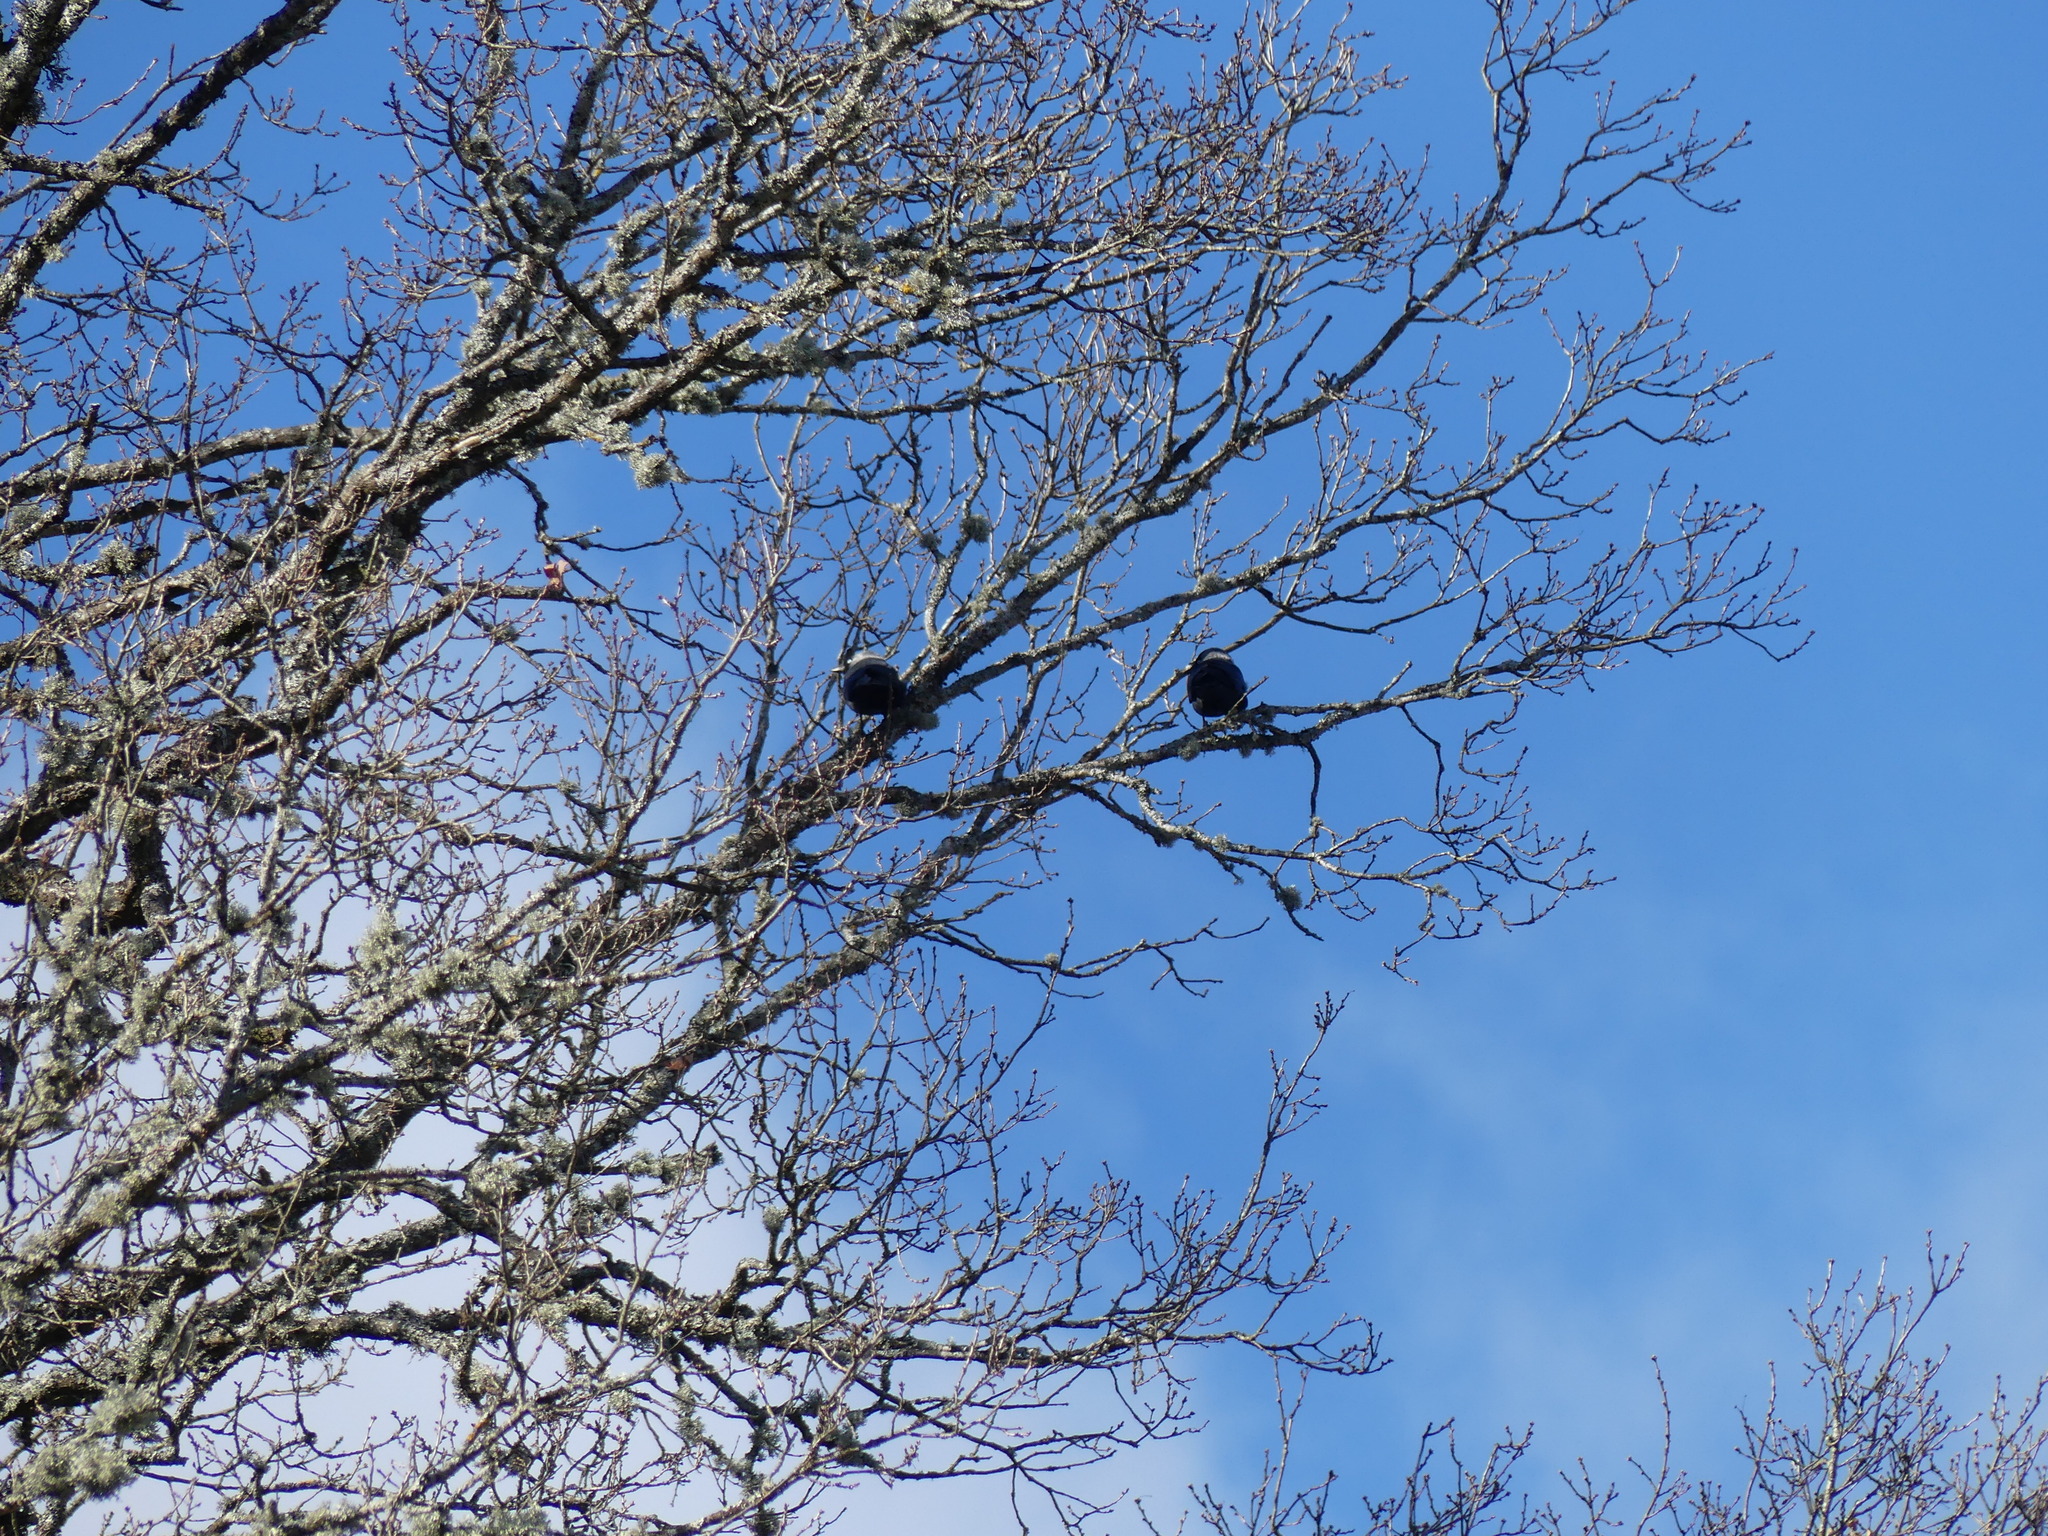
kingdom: Animalia
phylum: Chordata
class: Aves
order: Passeriformes
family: Corvidae
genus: Coloeus
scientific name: Coloeus monedula
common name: Western jackdaw
